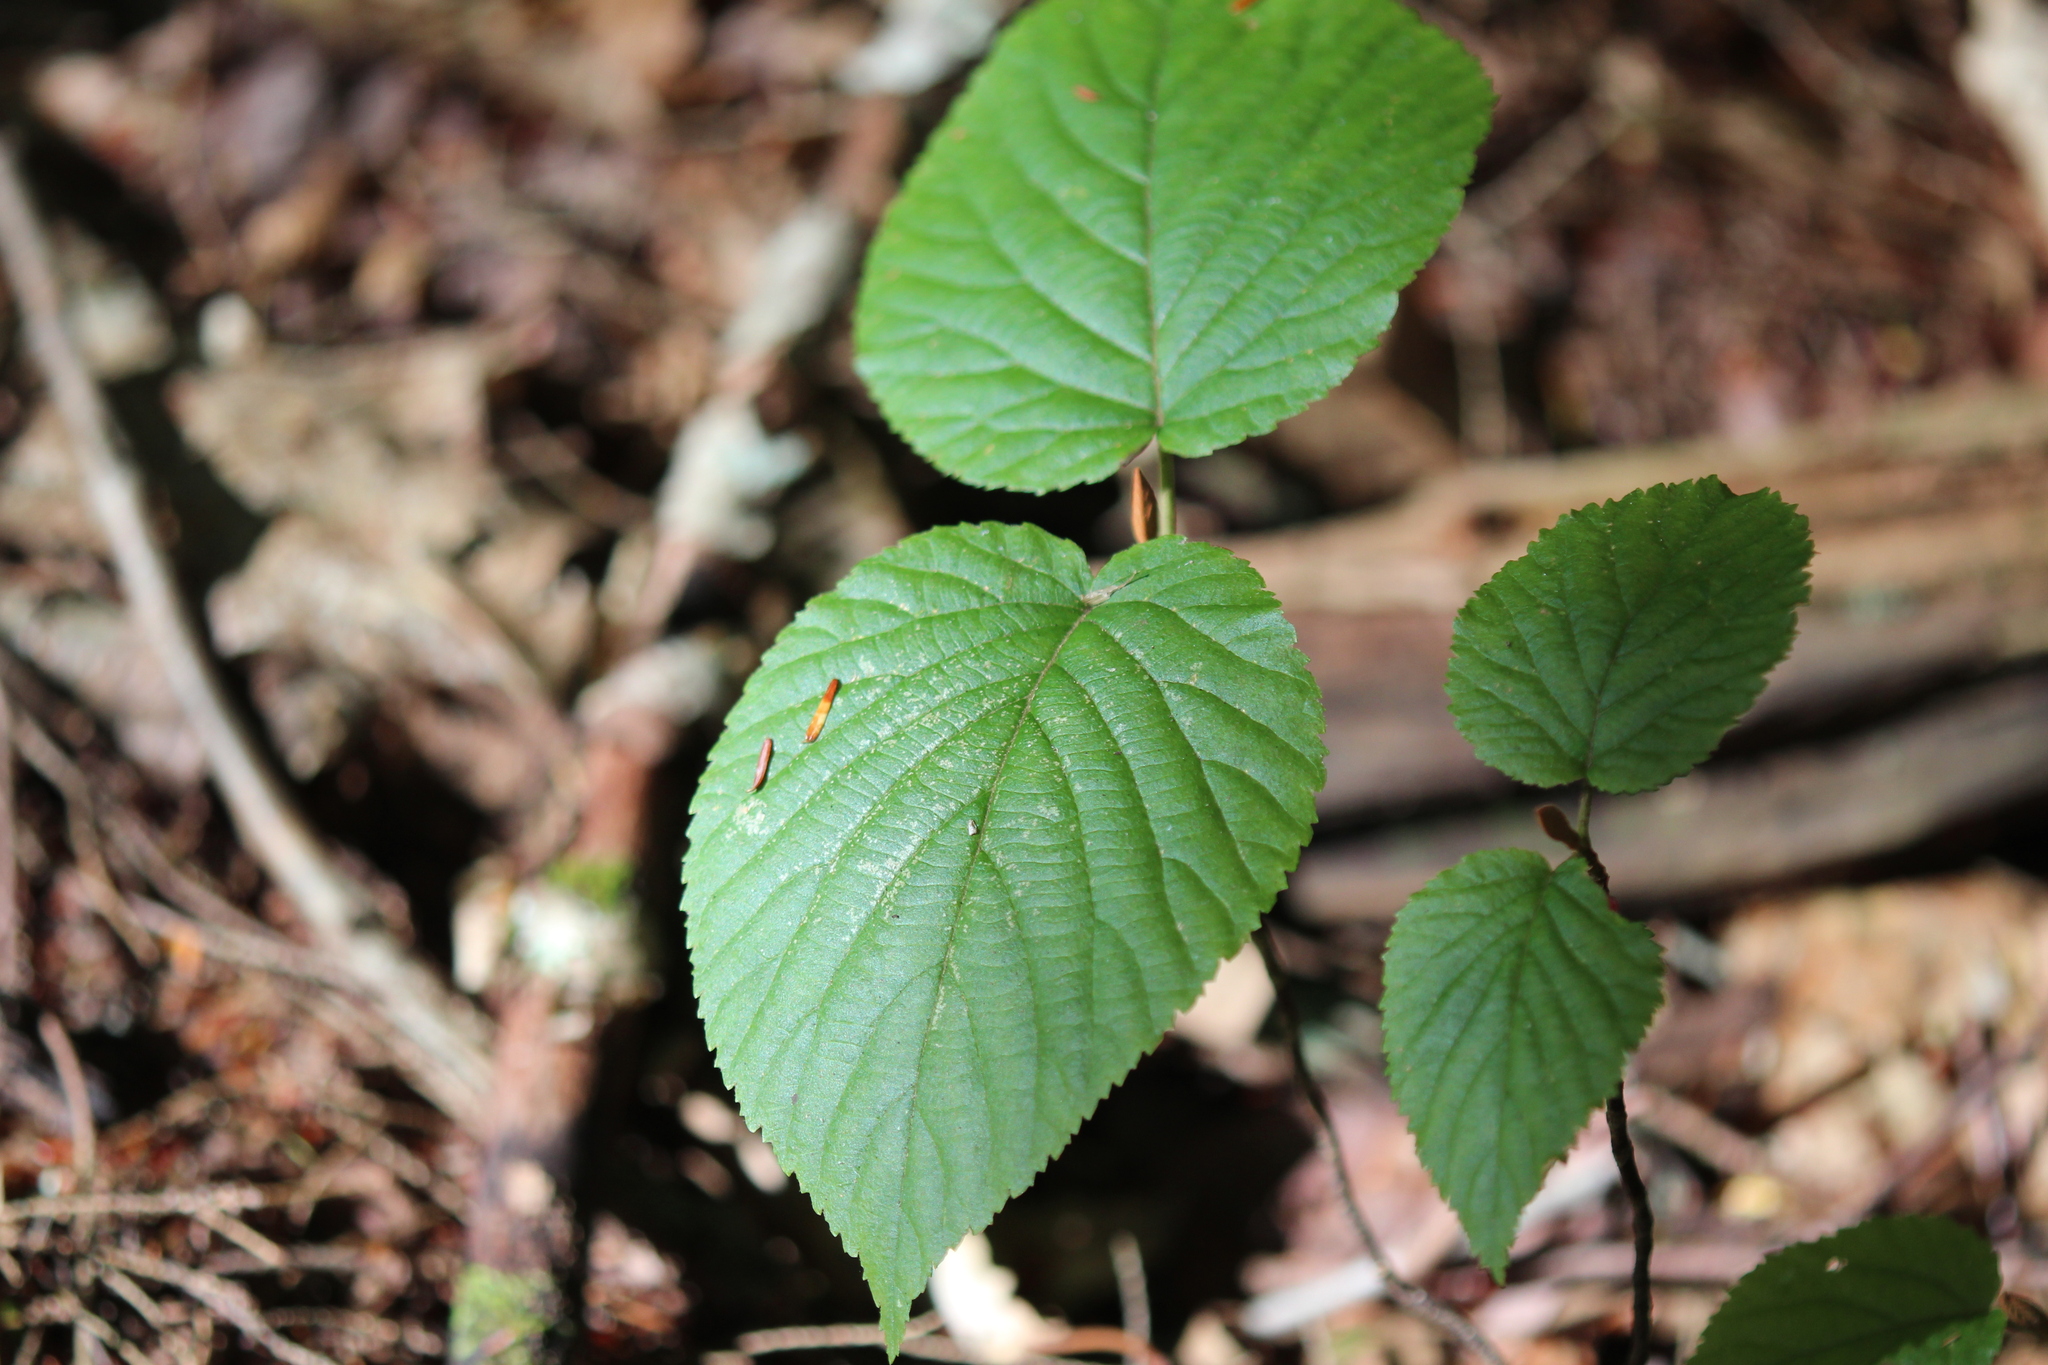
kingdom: Plantae
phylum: Tracheophyta
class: Magnoliopsida
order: Dipsacales
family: Viburnaceae
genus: Viburnum
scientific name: Viburnum lantanoides
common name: Hobblebush
